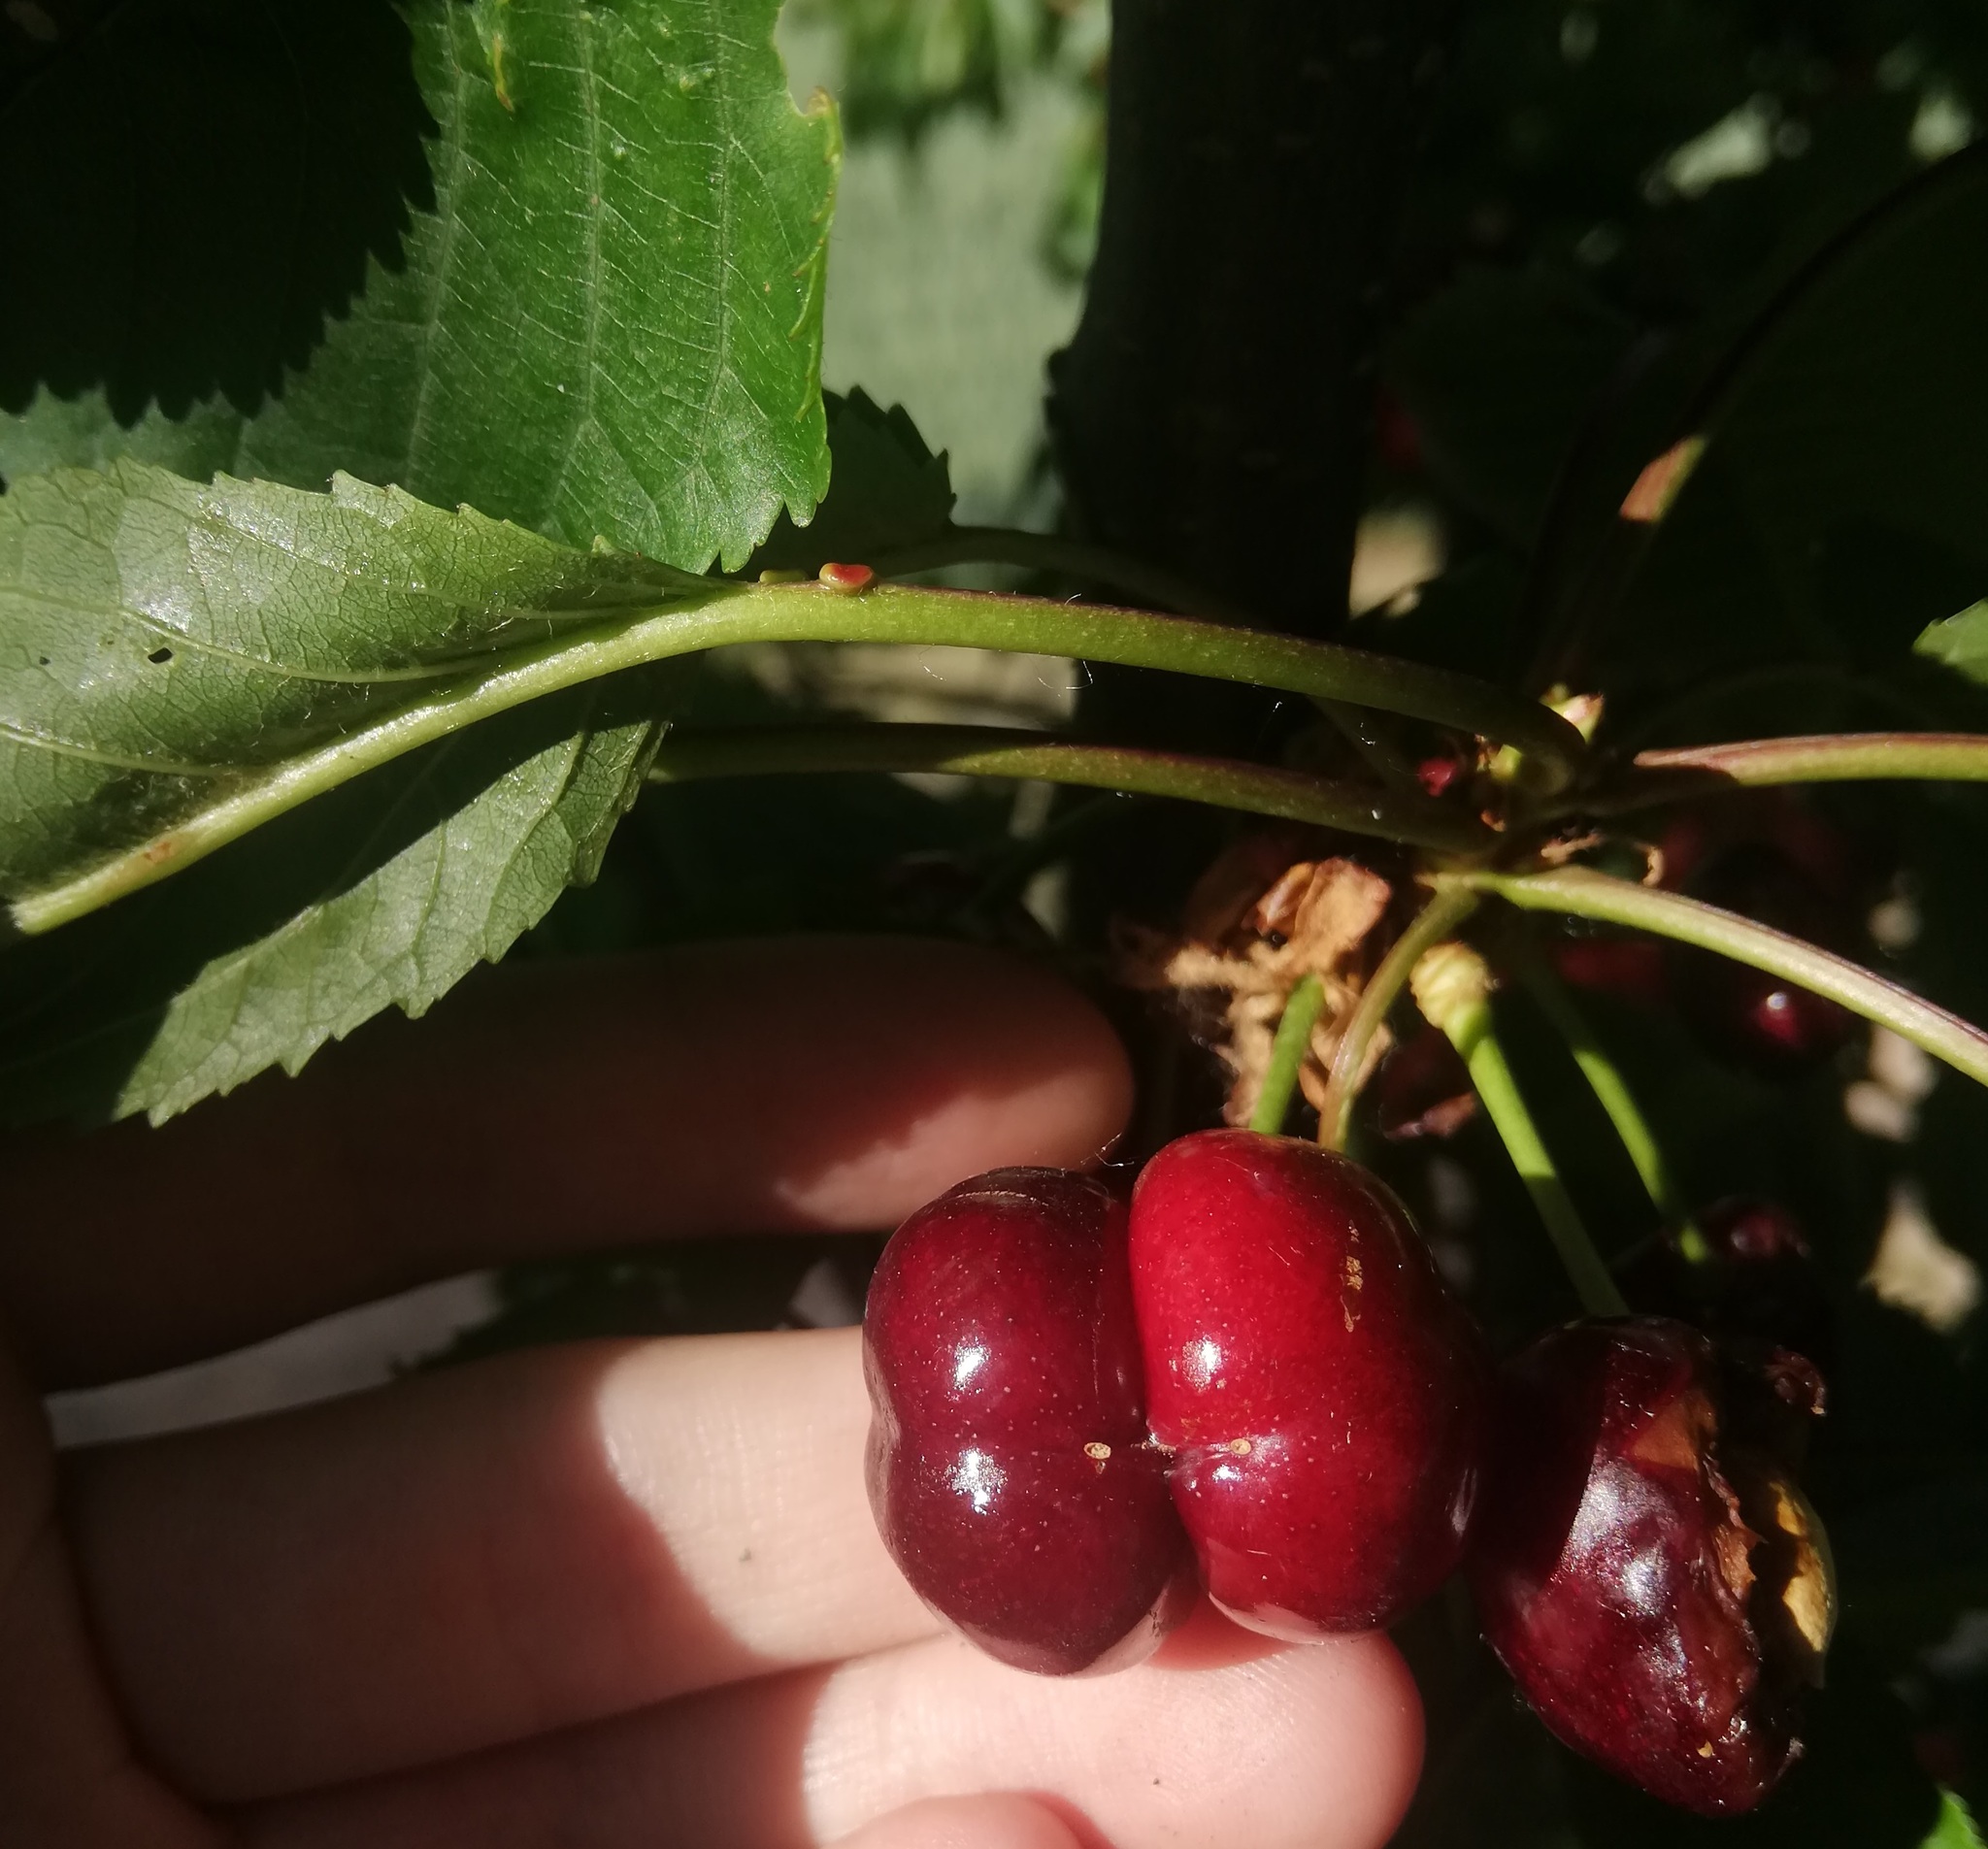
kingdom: Plantae
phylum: Tracheophyta
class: Magnoliopsida
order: Rosales
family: Rosaceae
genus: Prunus
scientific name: Prunus avium
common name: Sweet cherry
